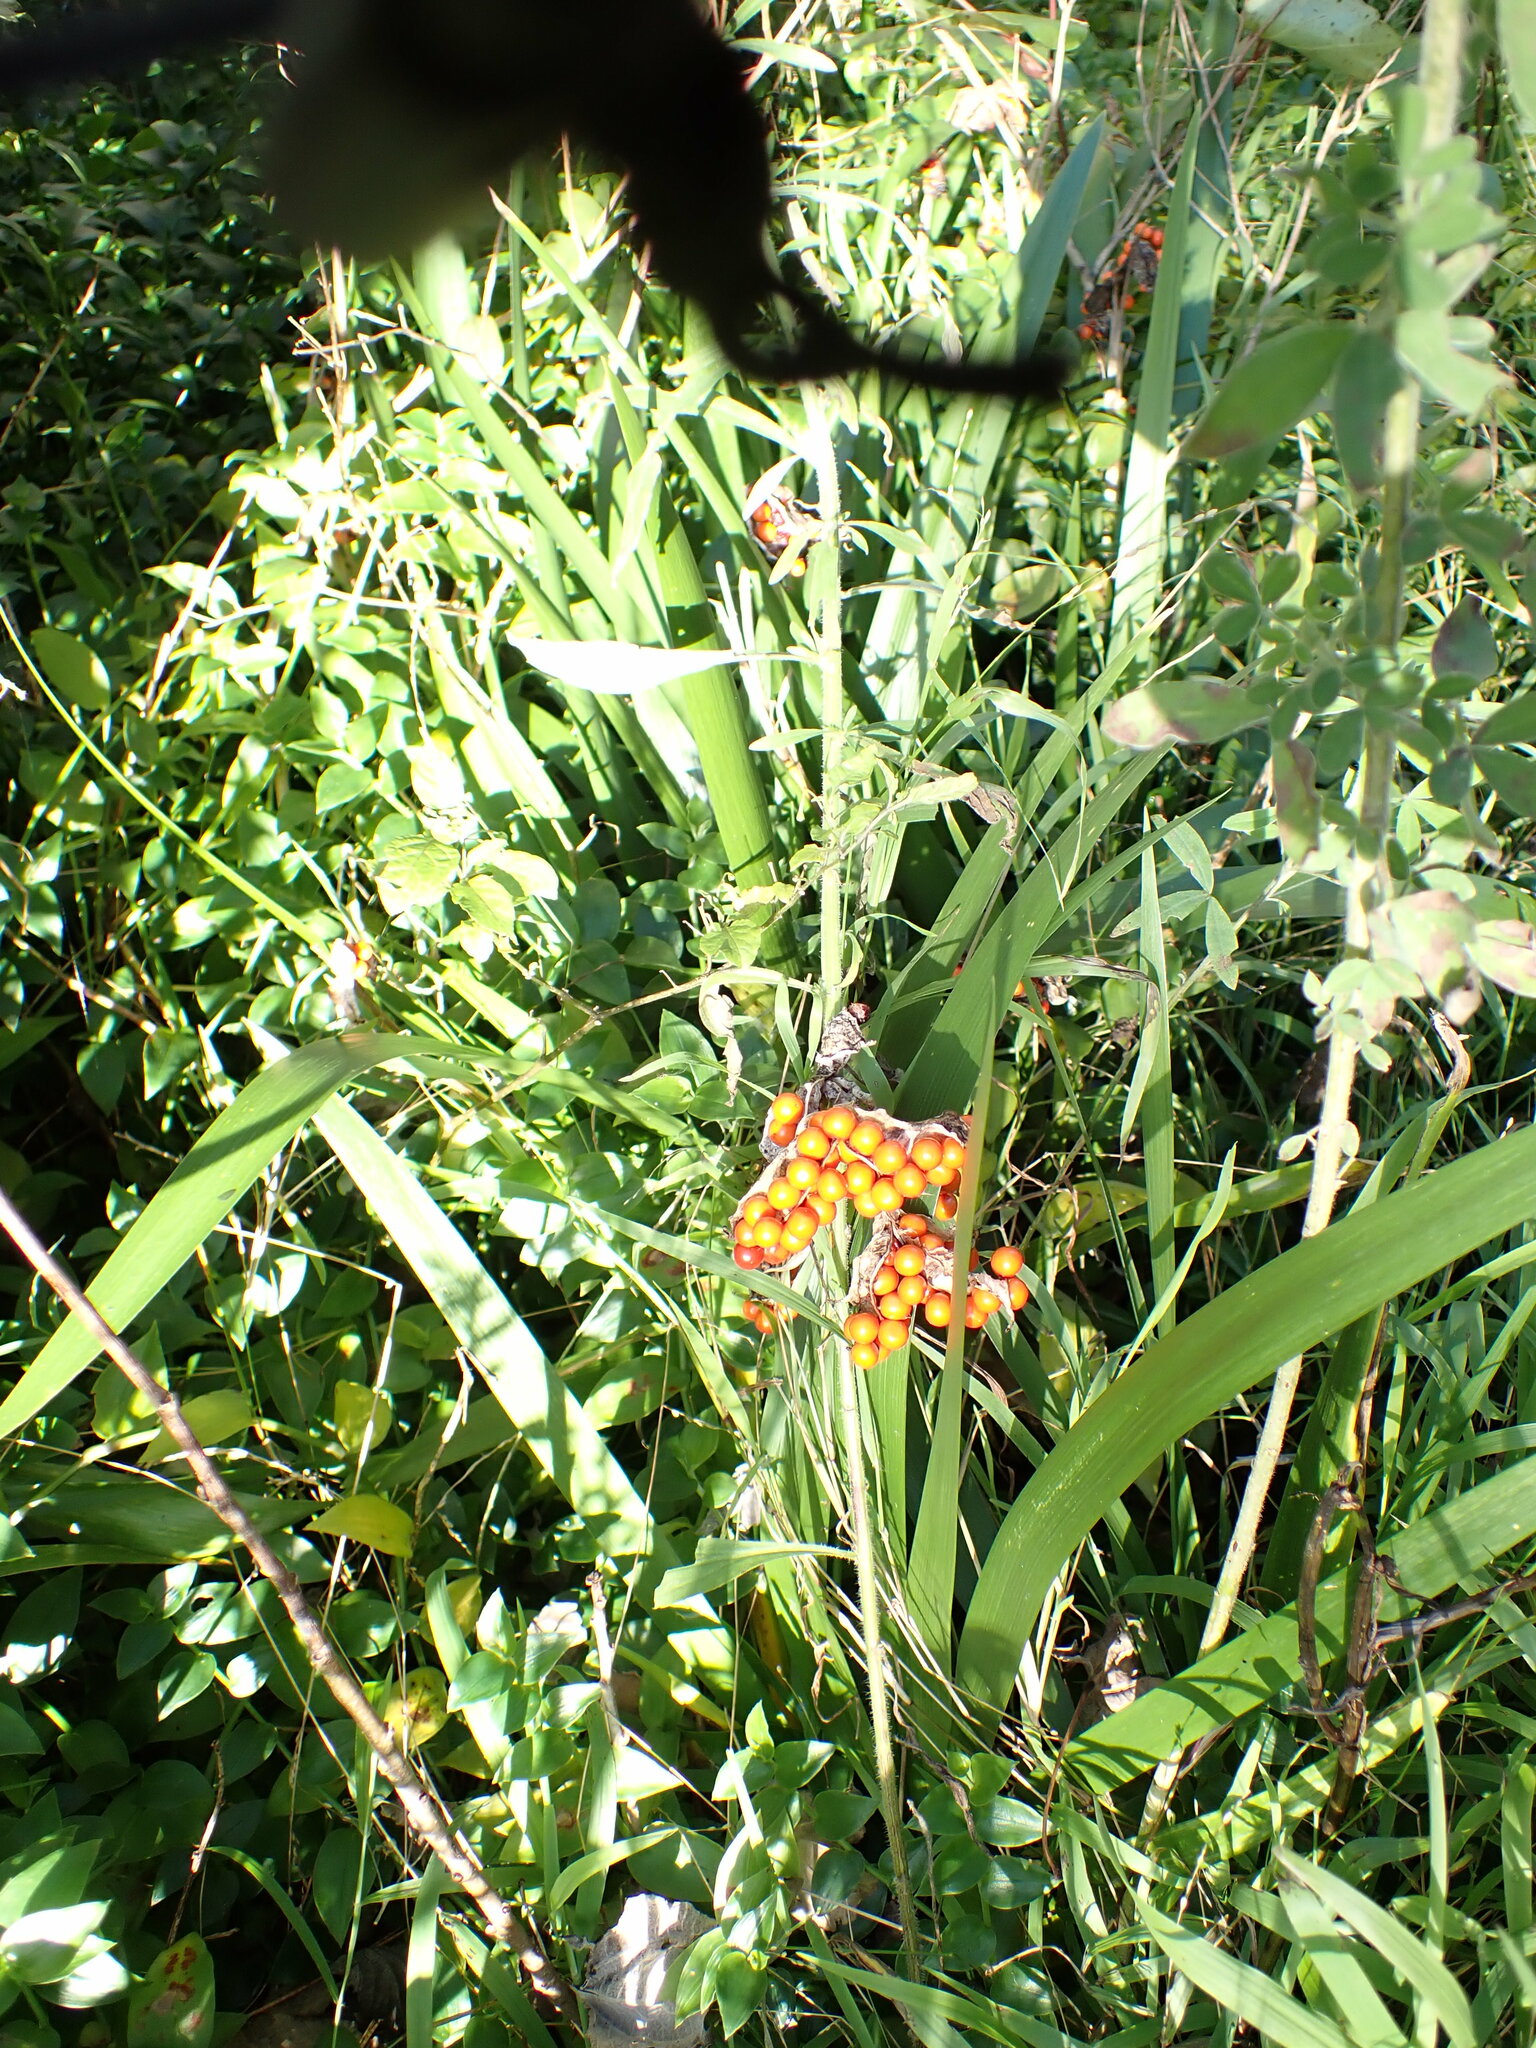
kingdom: Plantae
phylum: Tracheophyta
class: Liliopsida
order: Asparagales
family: Iridaceae
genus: Iris
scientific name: Iris foetidissima
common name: Stinking iris
